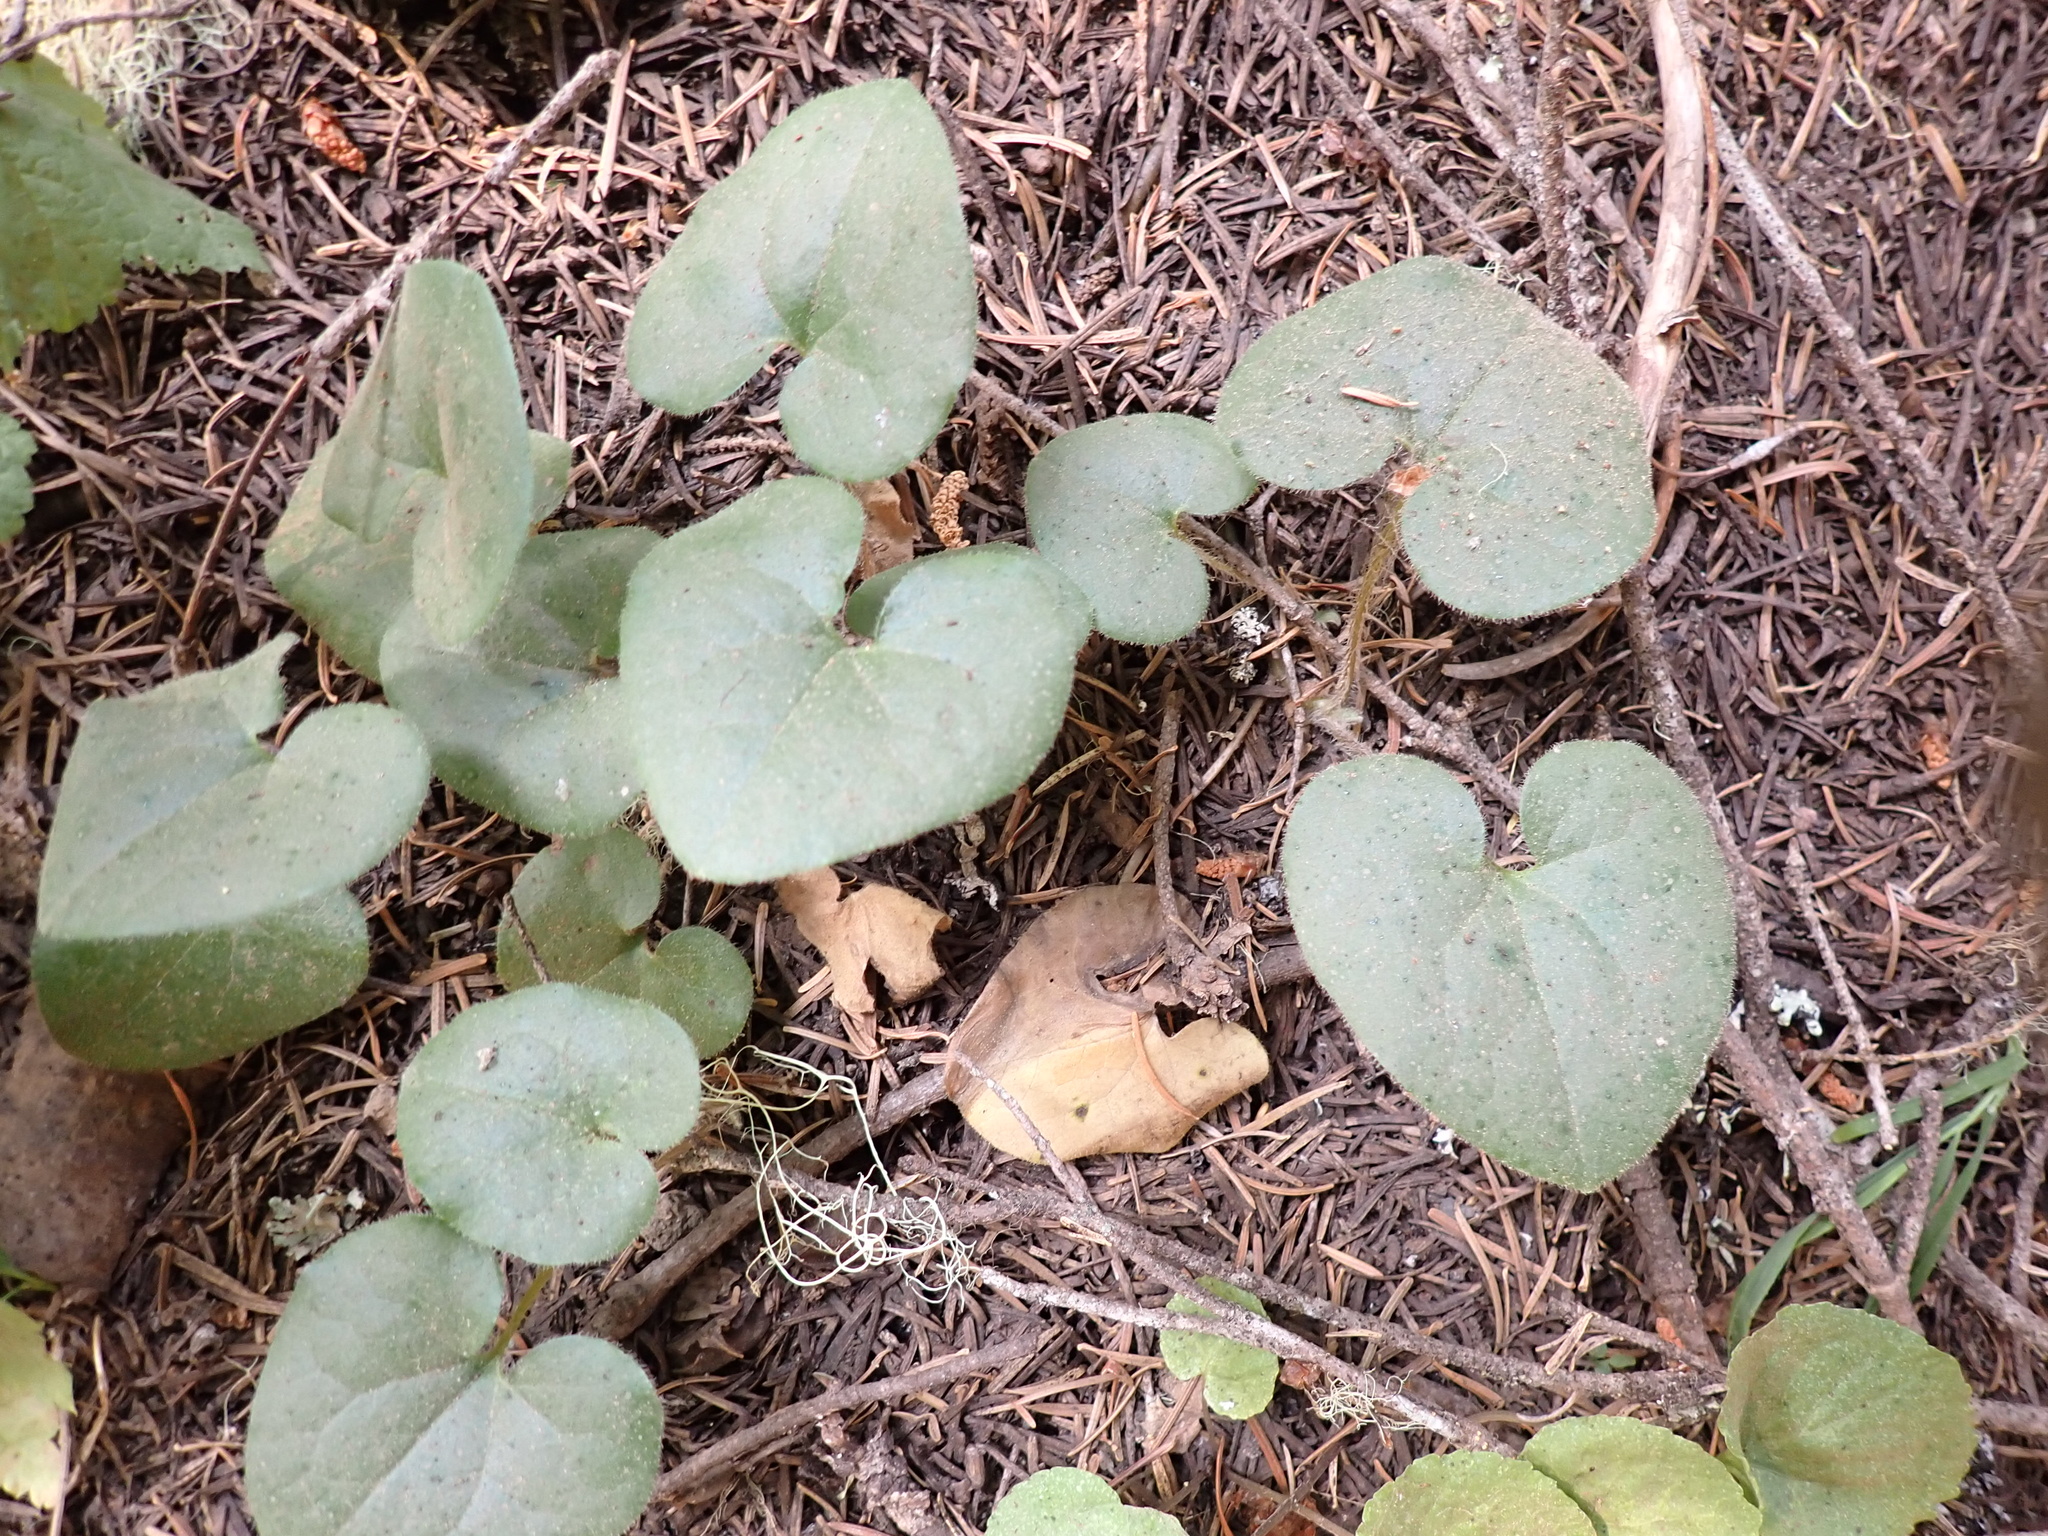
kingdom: Plantae
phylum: Tracheophyta
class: Magnoliopsida
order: Piperales
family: Aristolochiaceae
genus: Asarum
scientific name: Asarum caudatum
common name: Wild ginger
